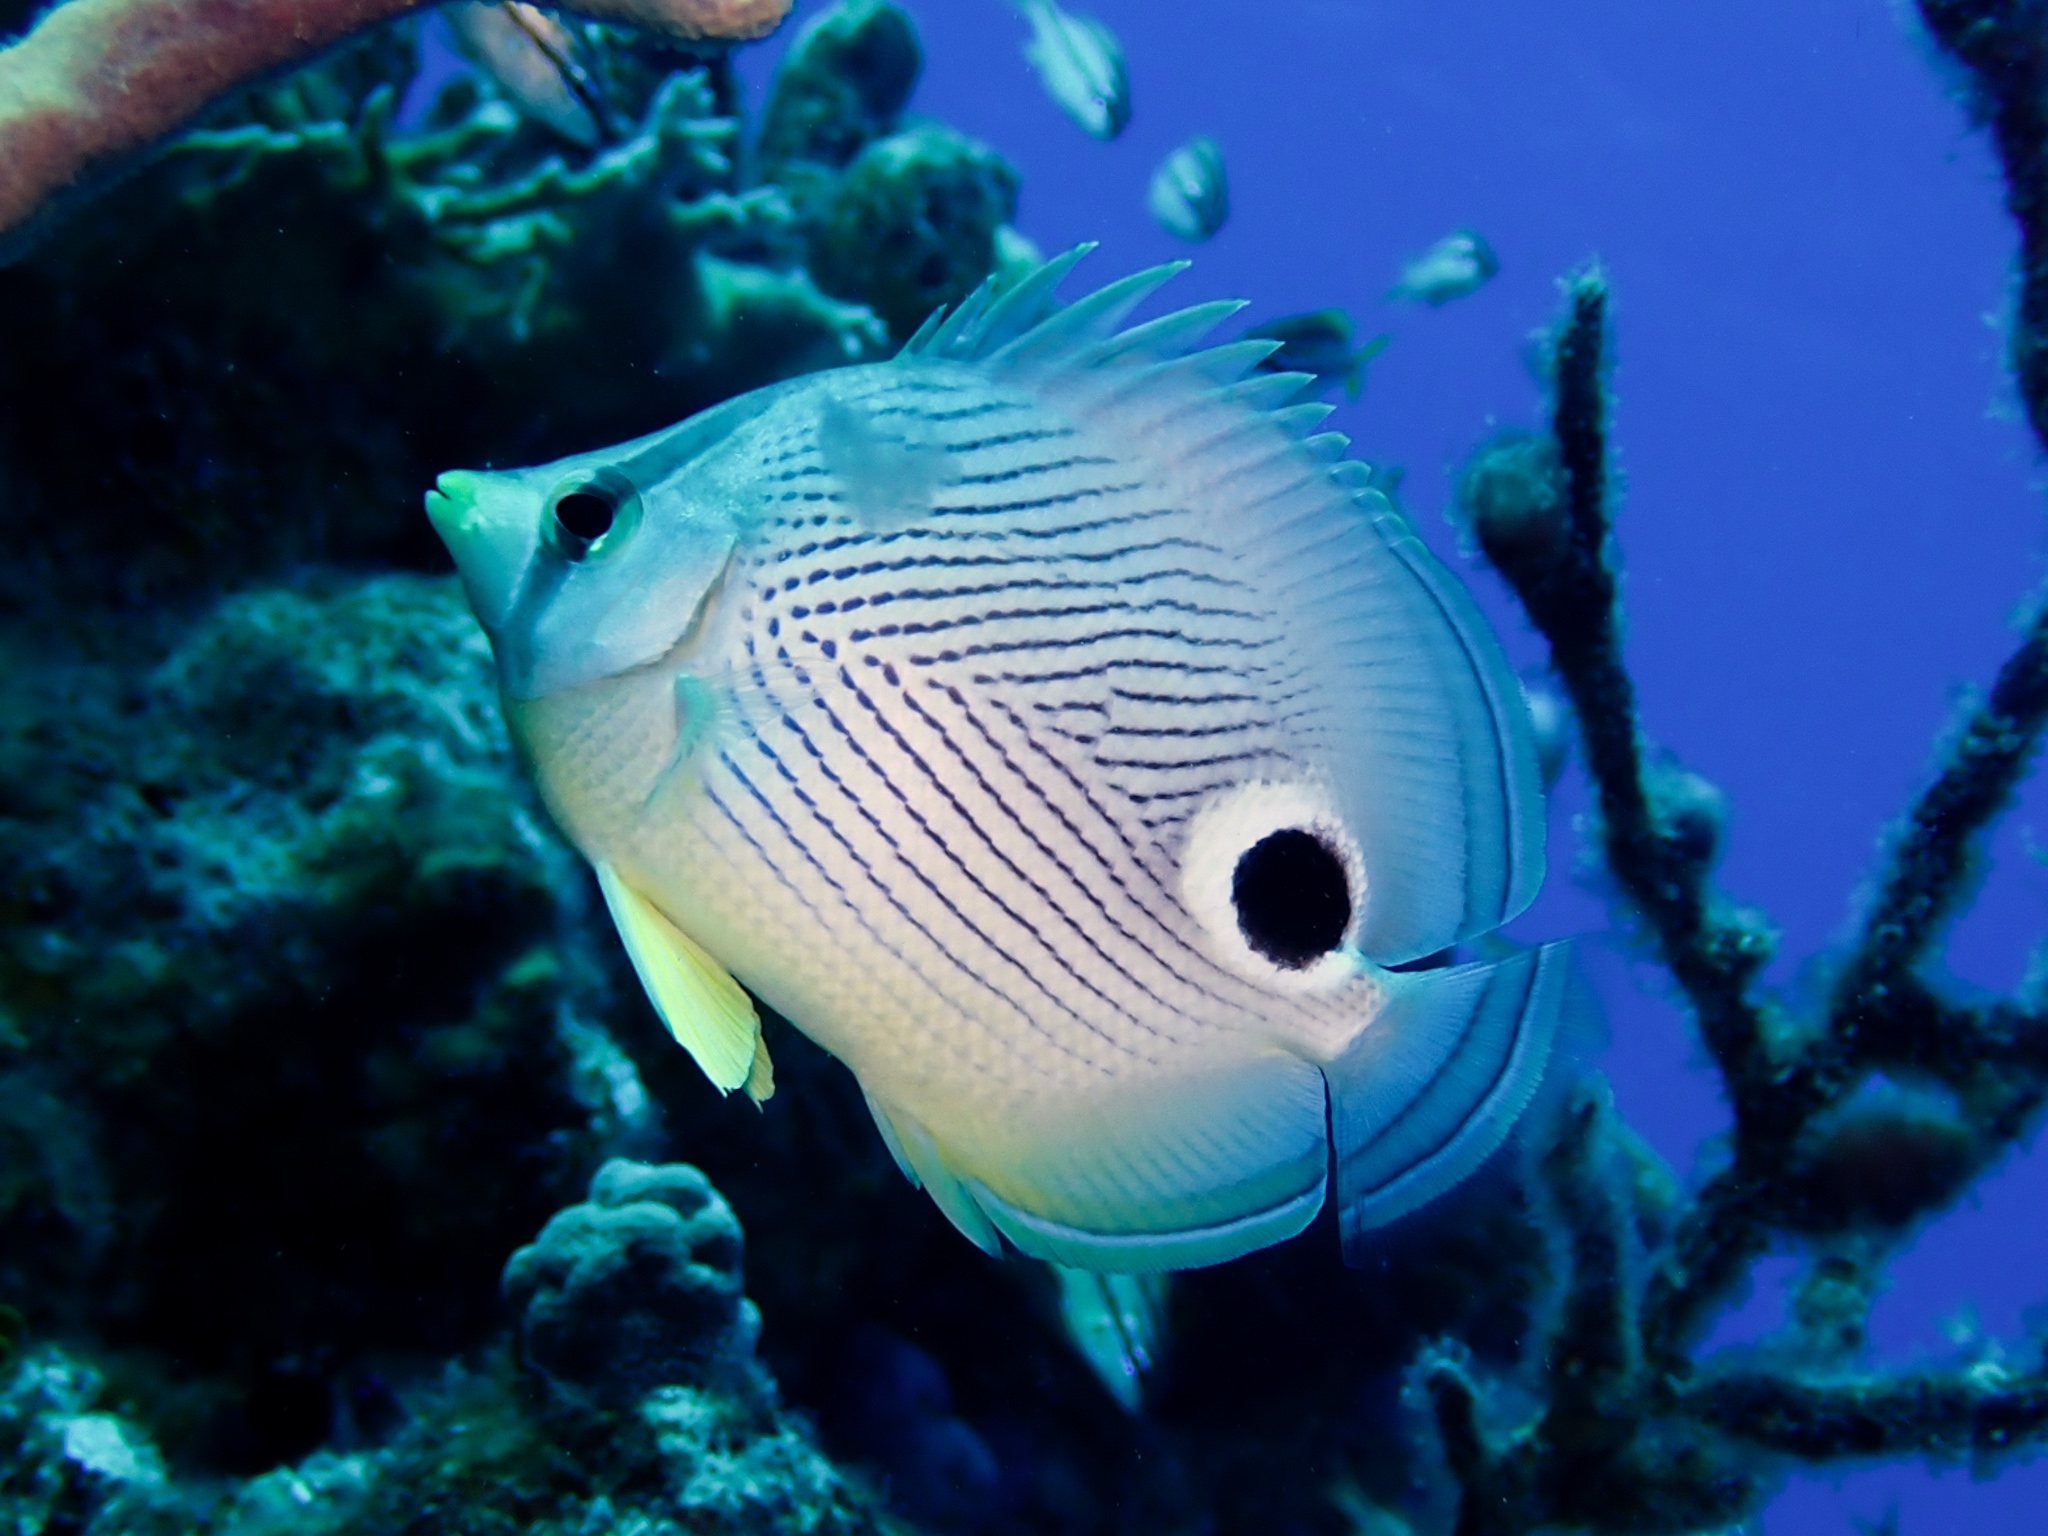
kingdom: Animalia
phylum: Chordata
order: Perciformes
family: Chaetodontidae
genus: Chaetodon
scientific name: Chaetodon capistratus
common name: Kete
